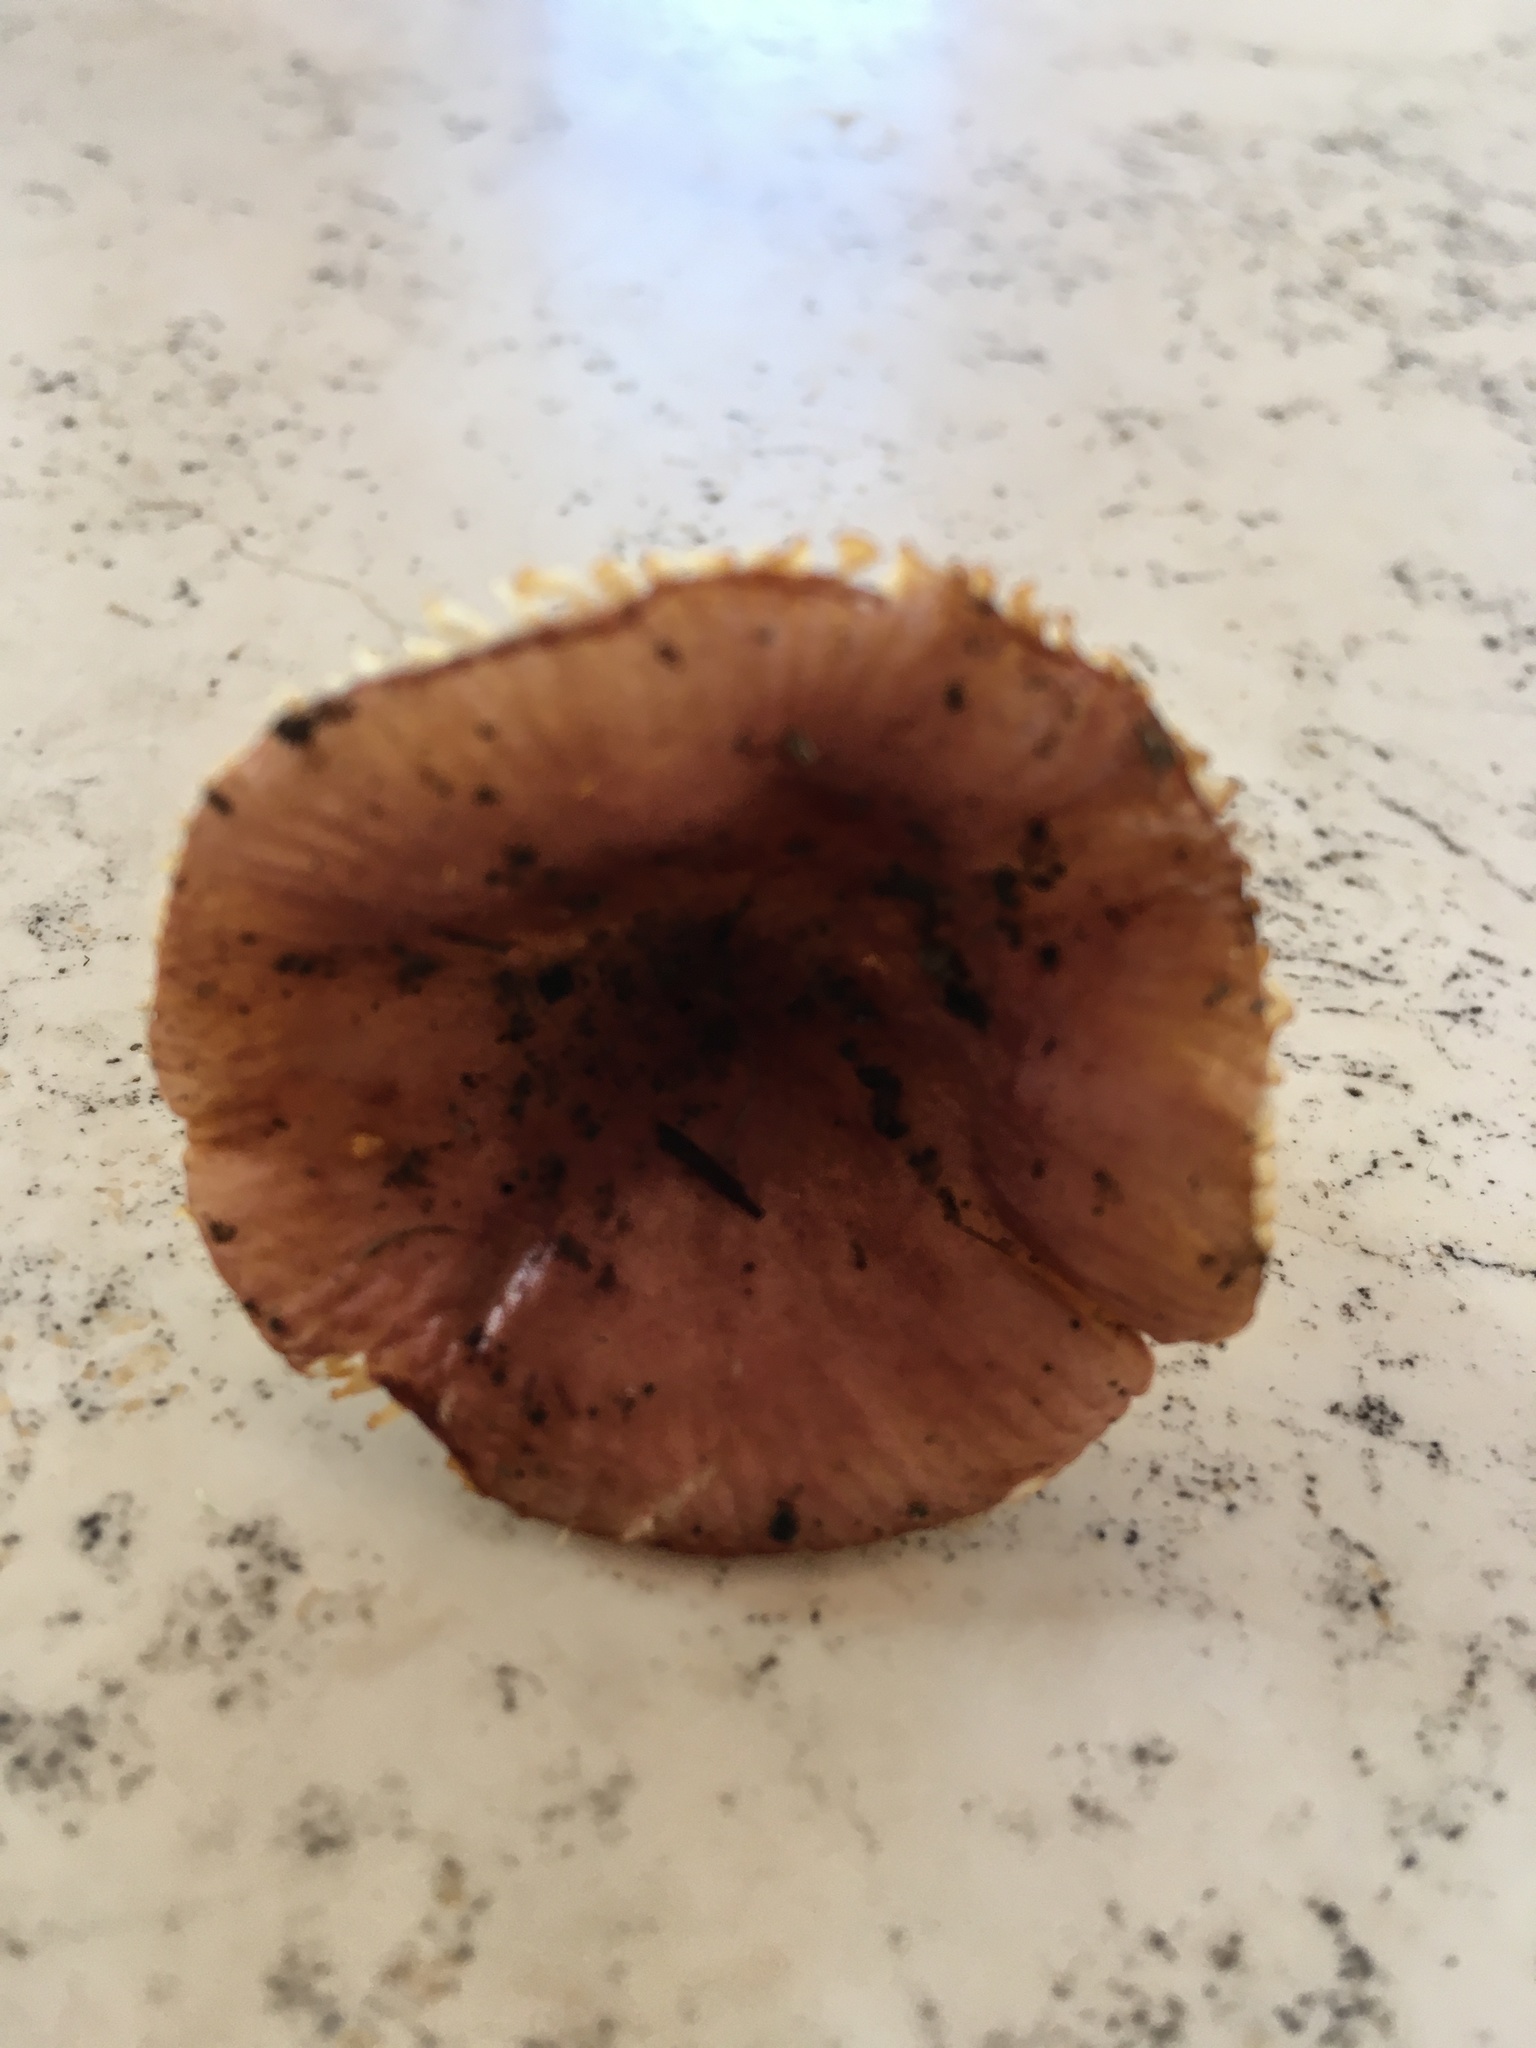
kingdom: Fungi
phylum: Basidiomycota
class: Agaricomycetes
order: Russulales
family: Russulaceae
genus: Russula
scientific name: Russula cremeirosea
